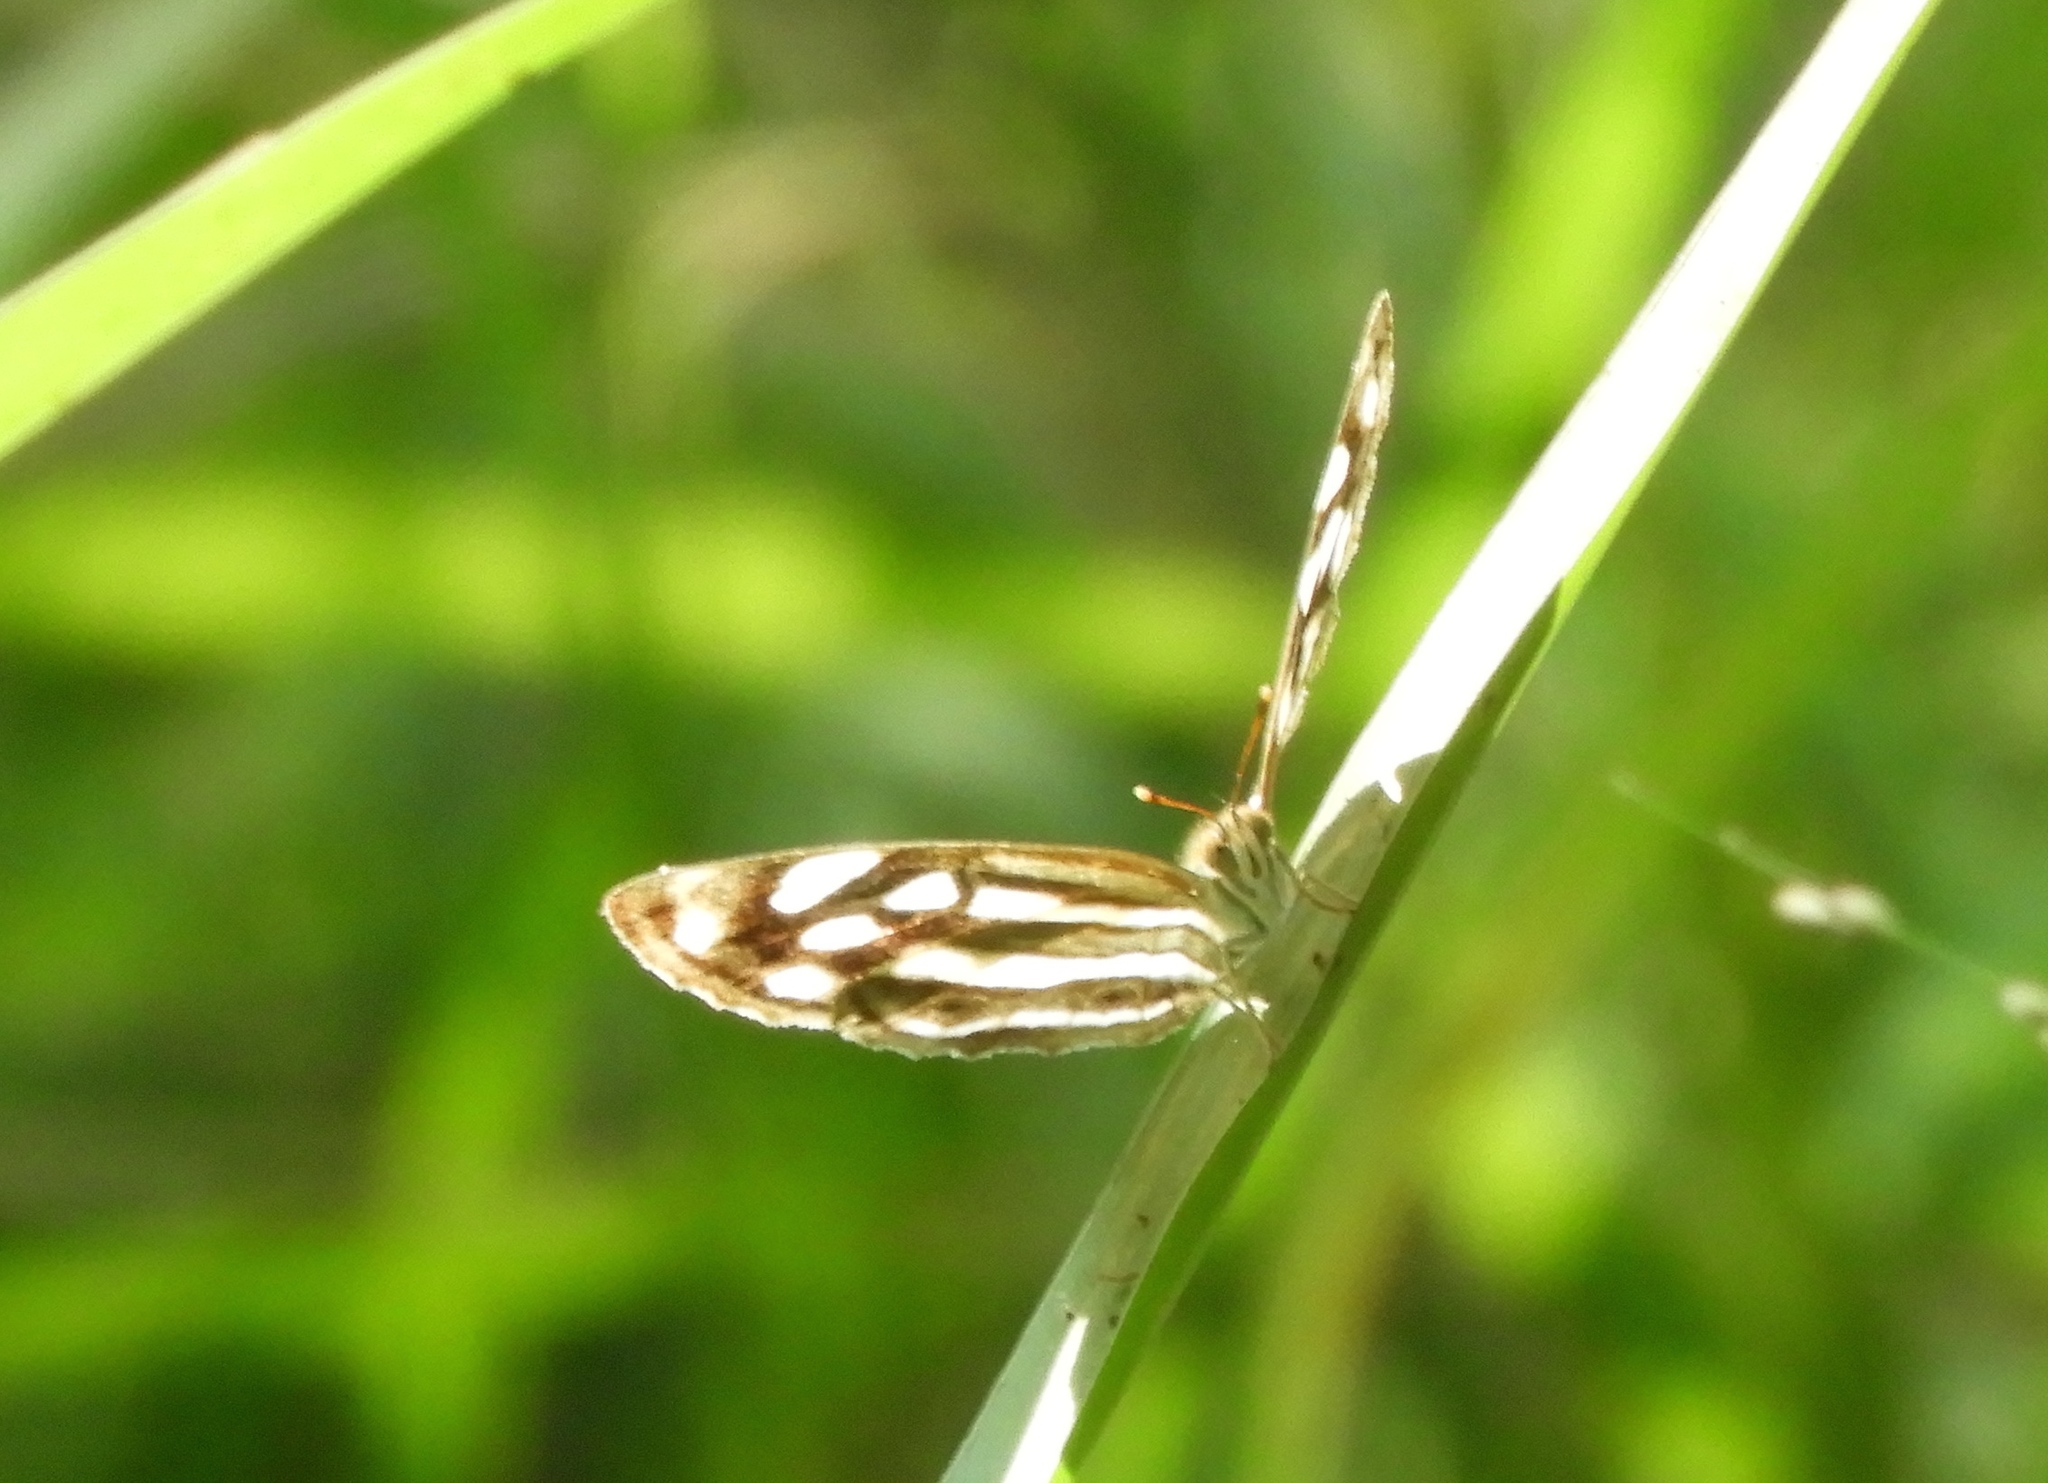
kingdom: Animalia
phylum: Arthropoda
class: Insecta
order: Lepidoptera
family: Nymphalidae
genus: Dynamine
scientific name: Dynamine mylitta
